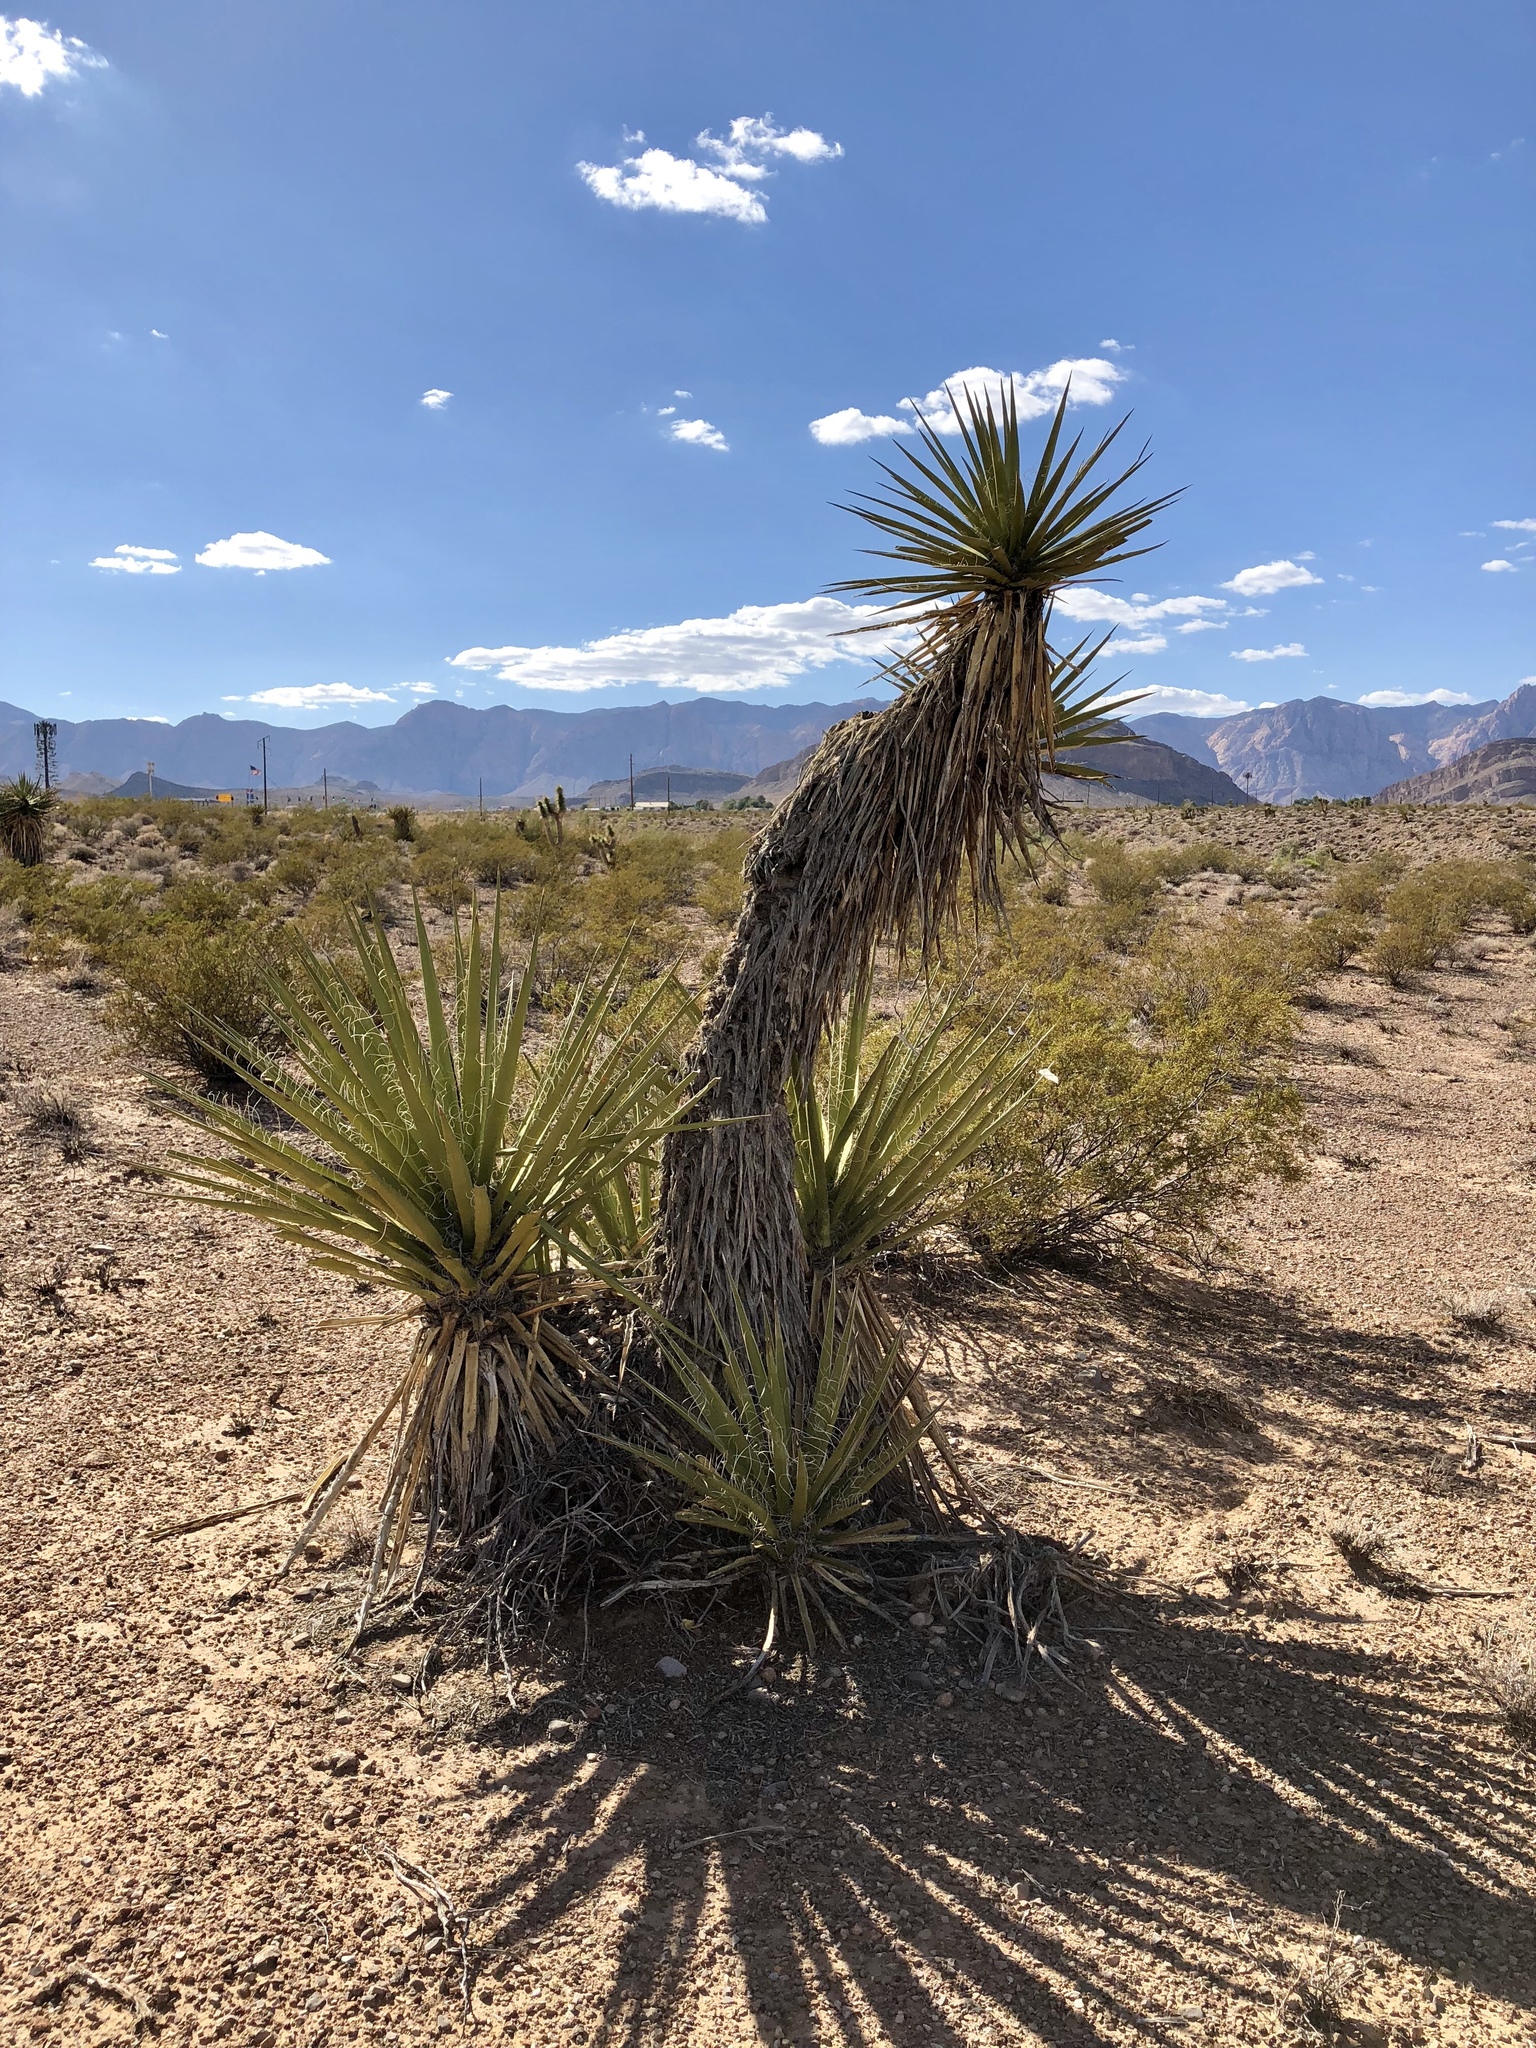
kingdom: Plantae
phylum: Tracheophyta
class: Liliopsida
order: Asparagales
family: Asparagaceae
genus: Yucca
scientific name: Yucca schidigera
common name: Mojave yucca
